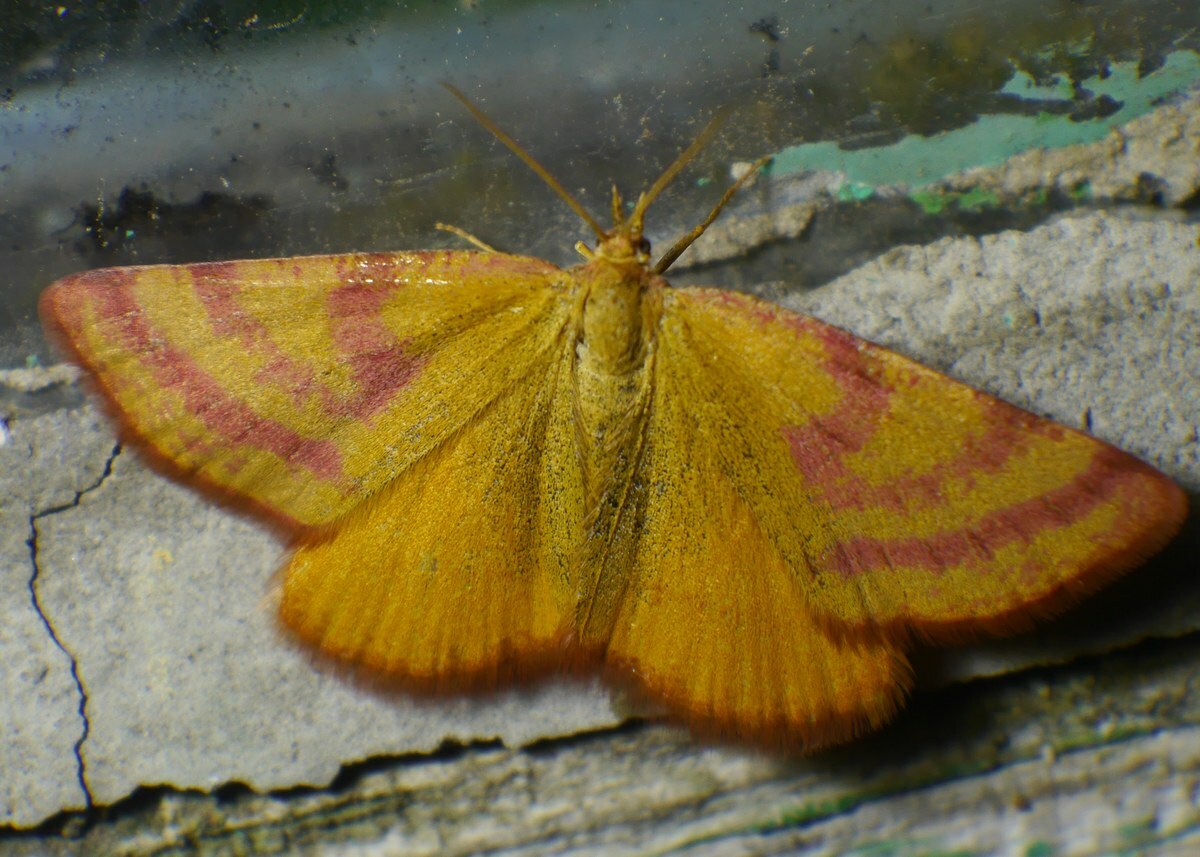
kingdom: Animalia
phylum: Arthropoda
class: Insecta
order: Lepidoptera
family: Geometridae
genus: Lythria
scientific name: Lythria purpuraria
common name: Purple-barred yellow
